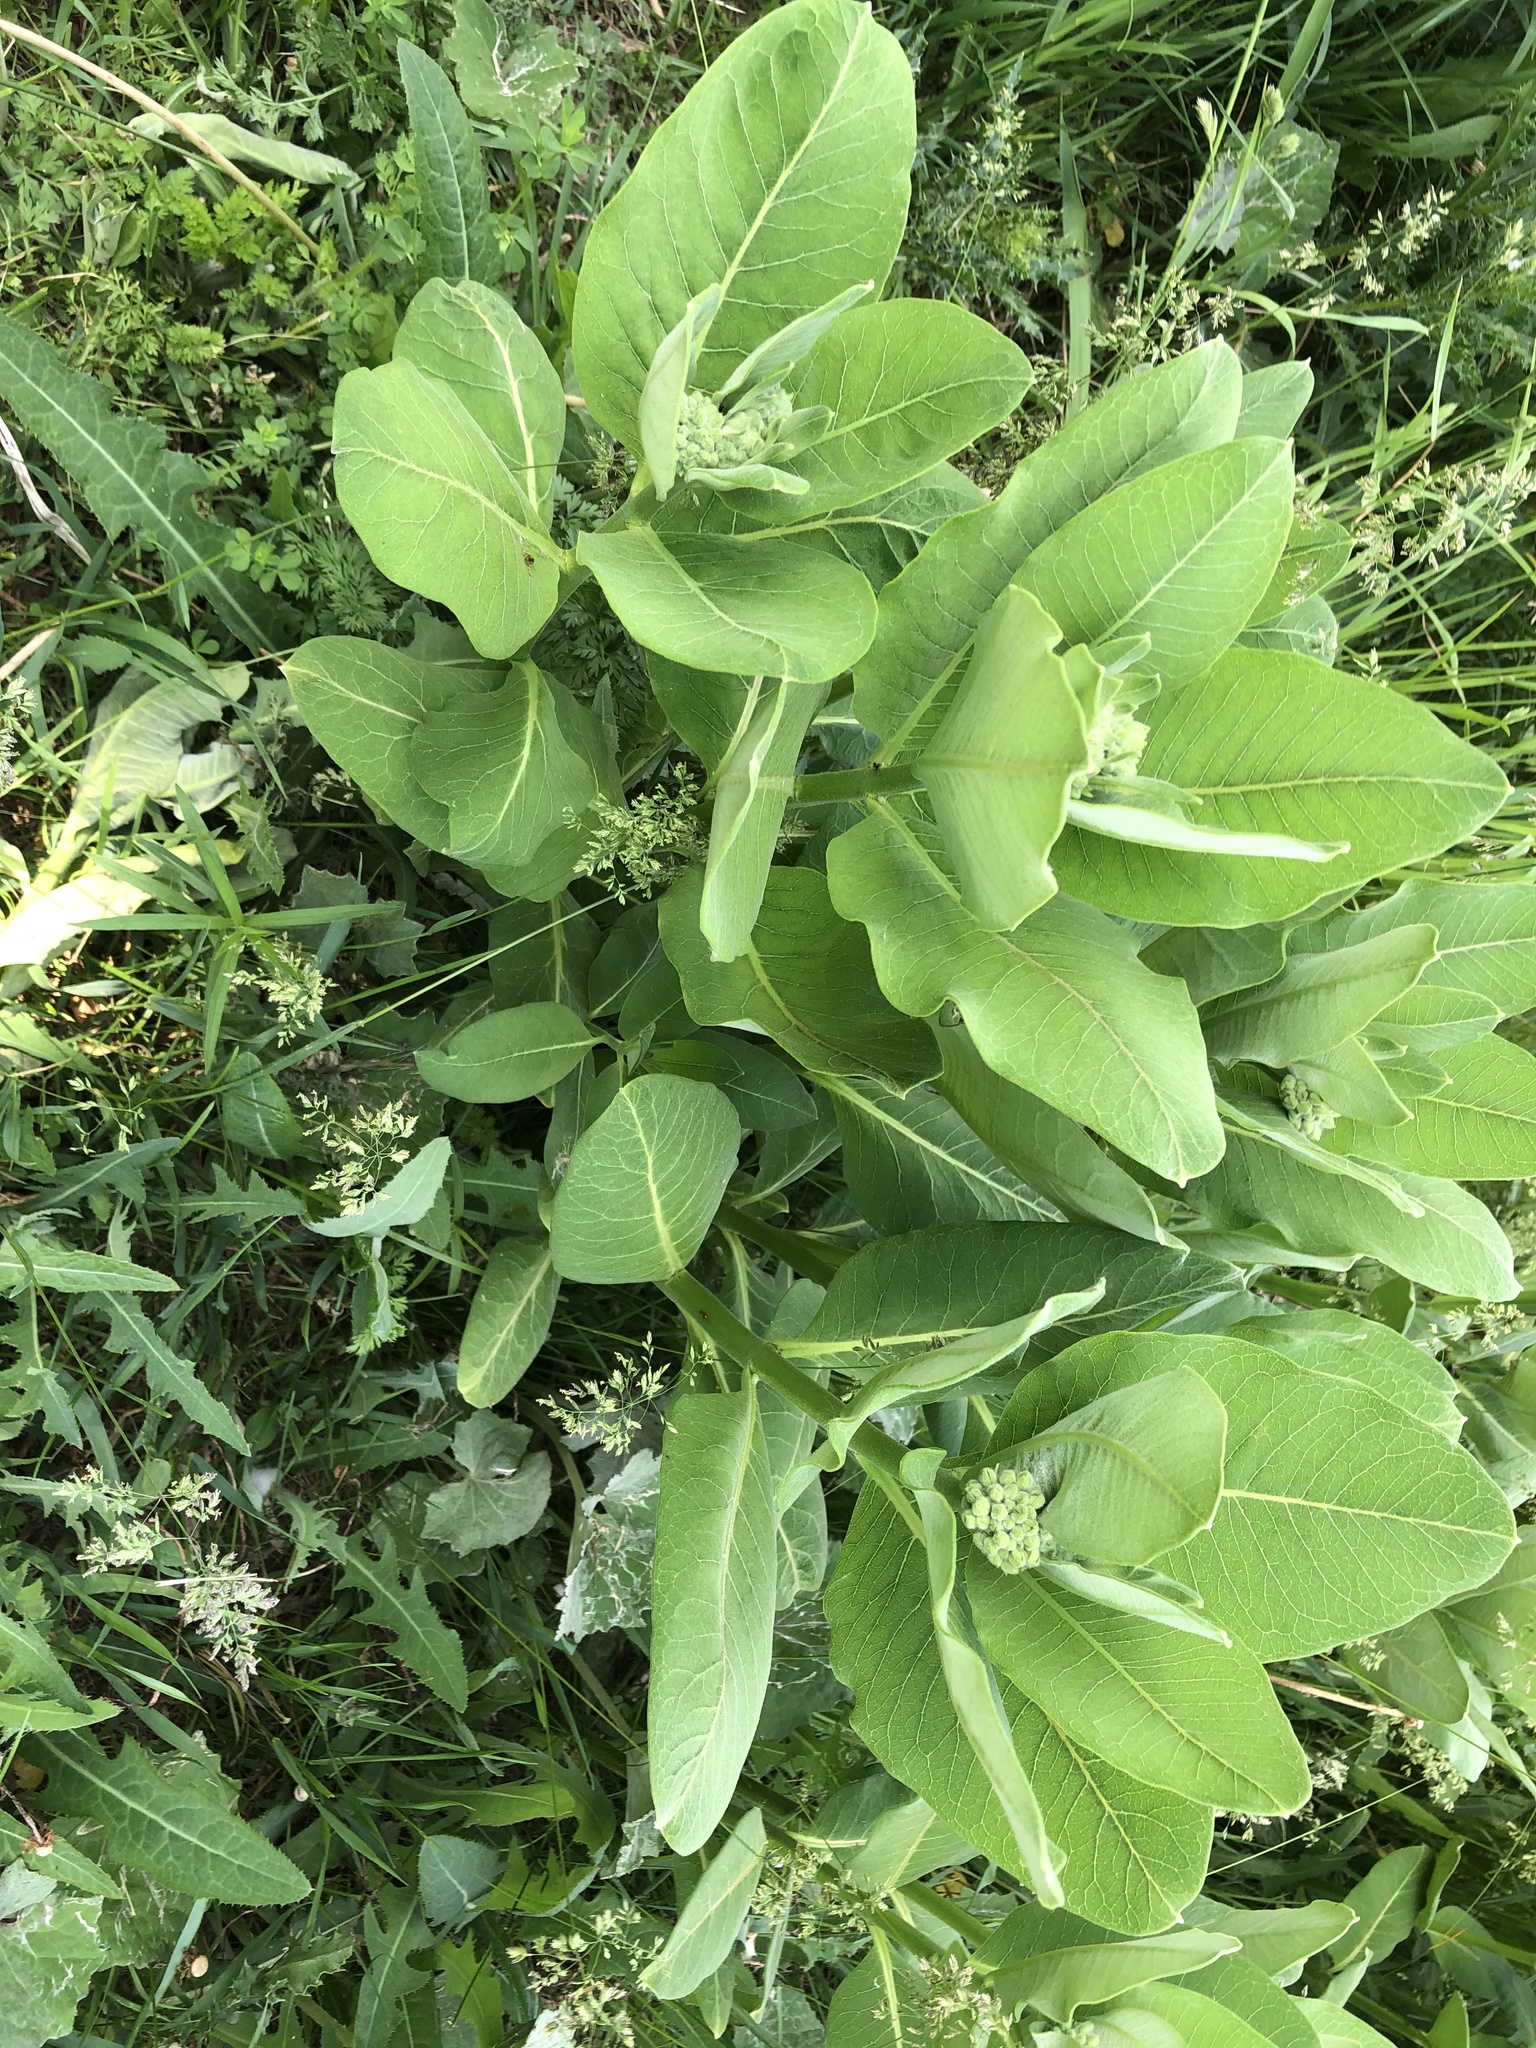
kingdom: Plantae
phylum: Tracheophyta
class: Magnoliopsida
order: Gentianales
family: Apocynaceae
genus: Asclepias
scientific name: Asclepias syriaca
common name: Common milkweed
